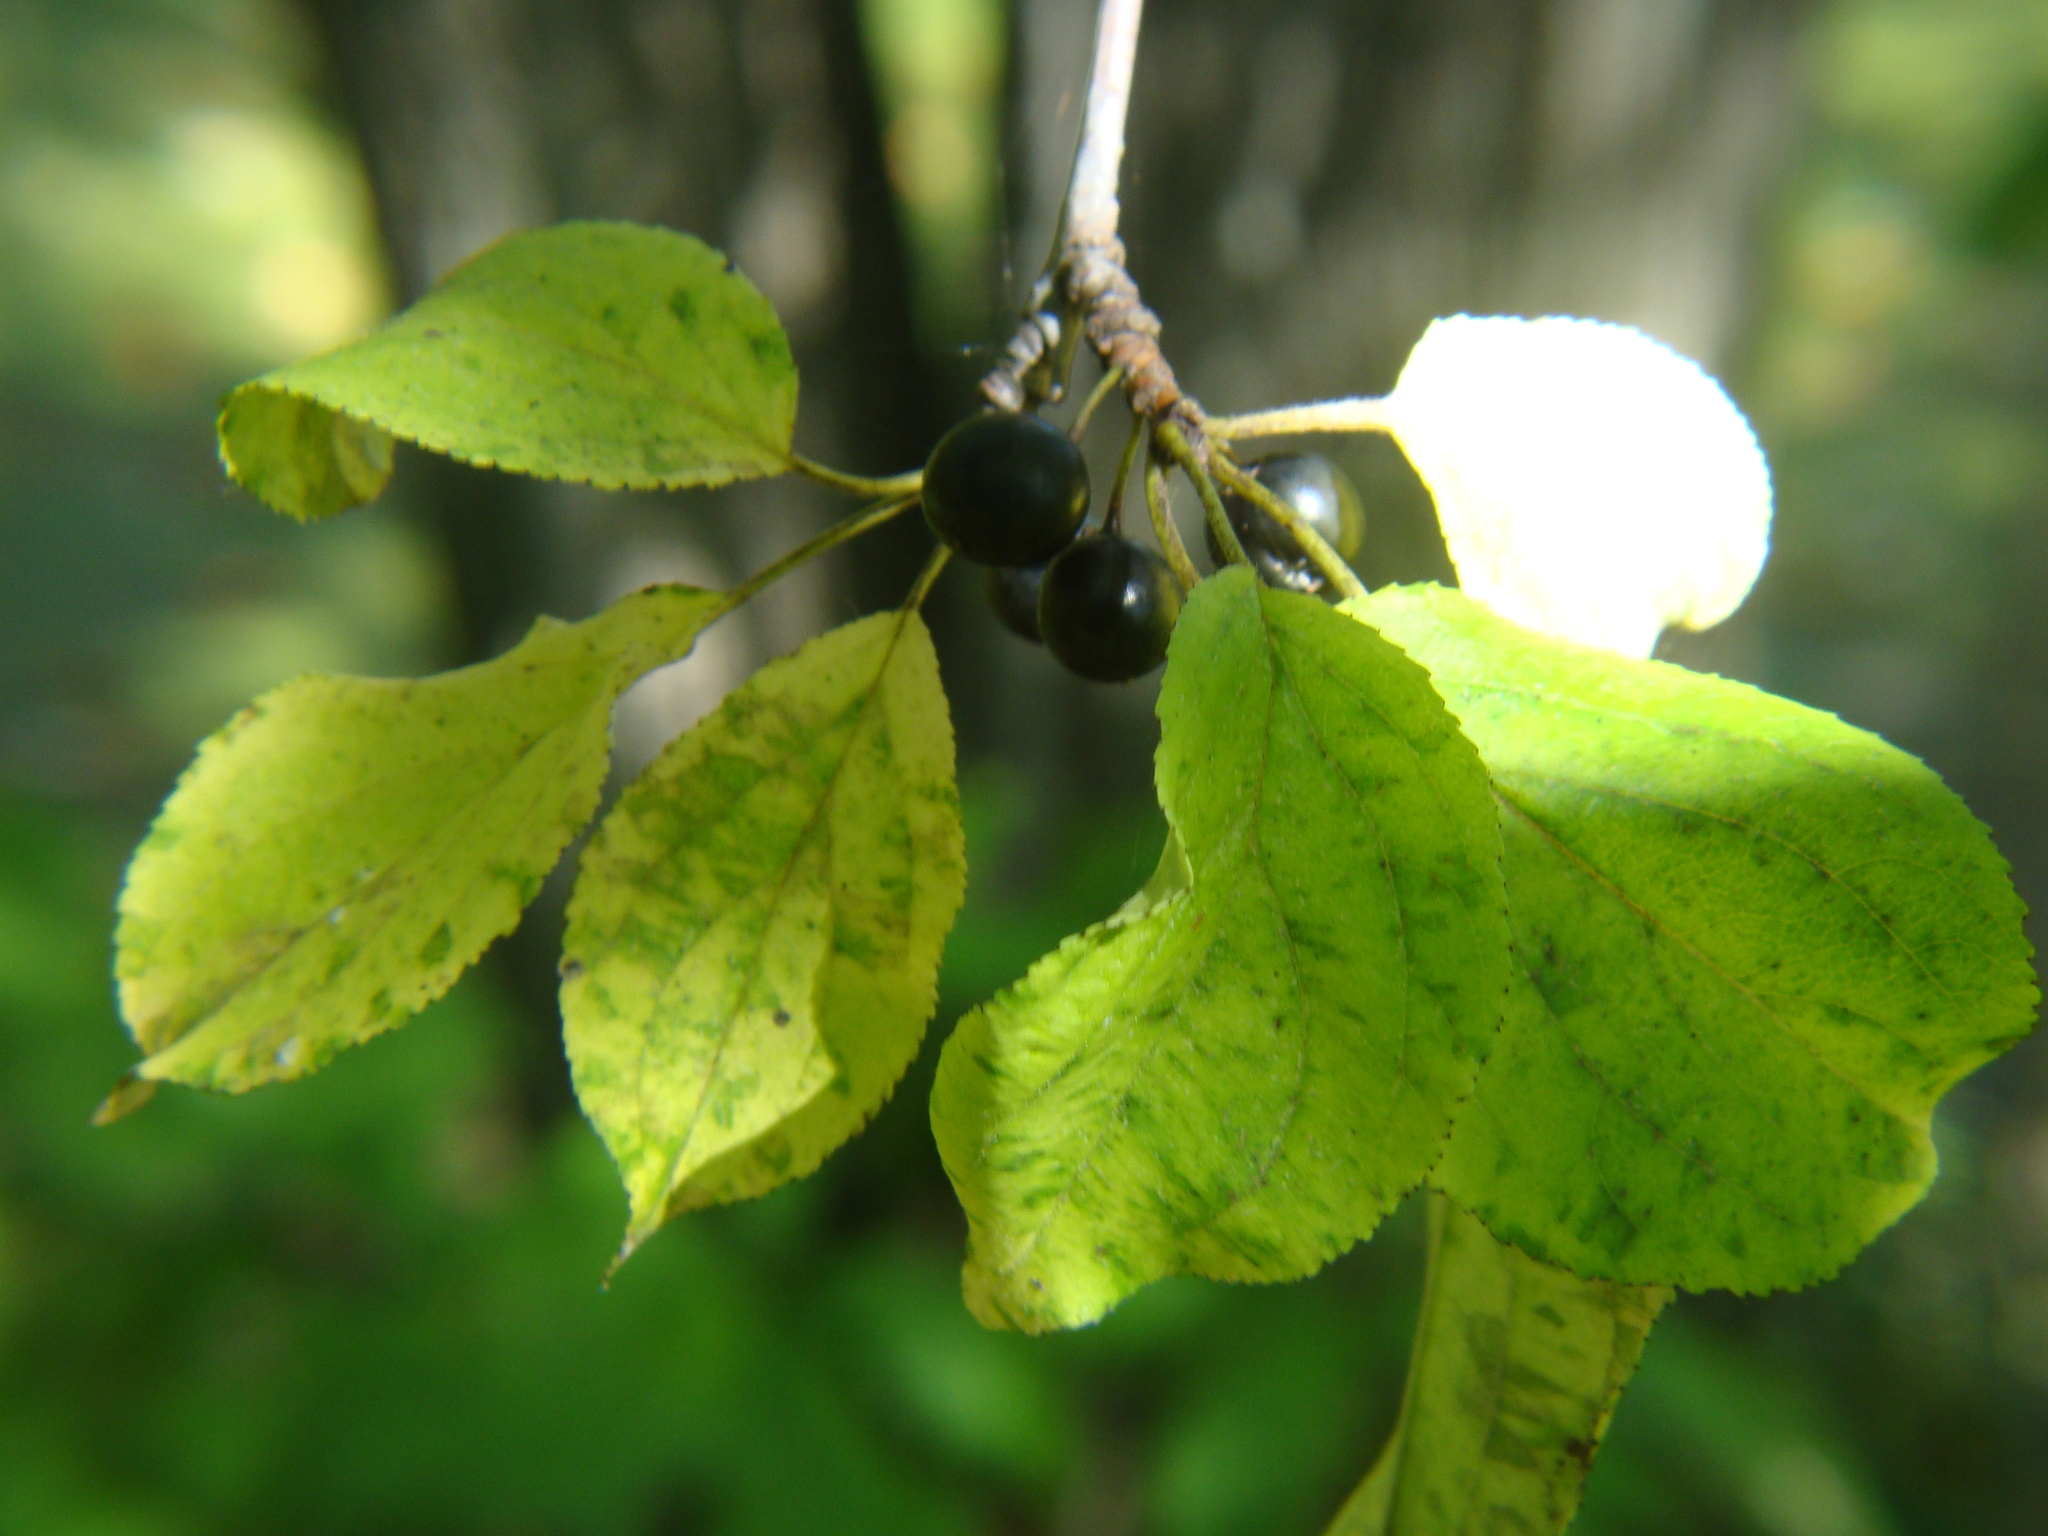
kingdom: Plantae
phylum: Tracheophyta
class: Magnoliopsida
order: Rosales
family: Rhamnaceae
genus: Rhamnus
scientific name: Rhamnus cathartica
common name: Common buckthorn
